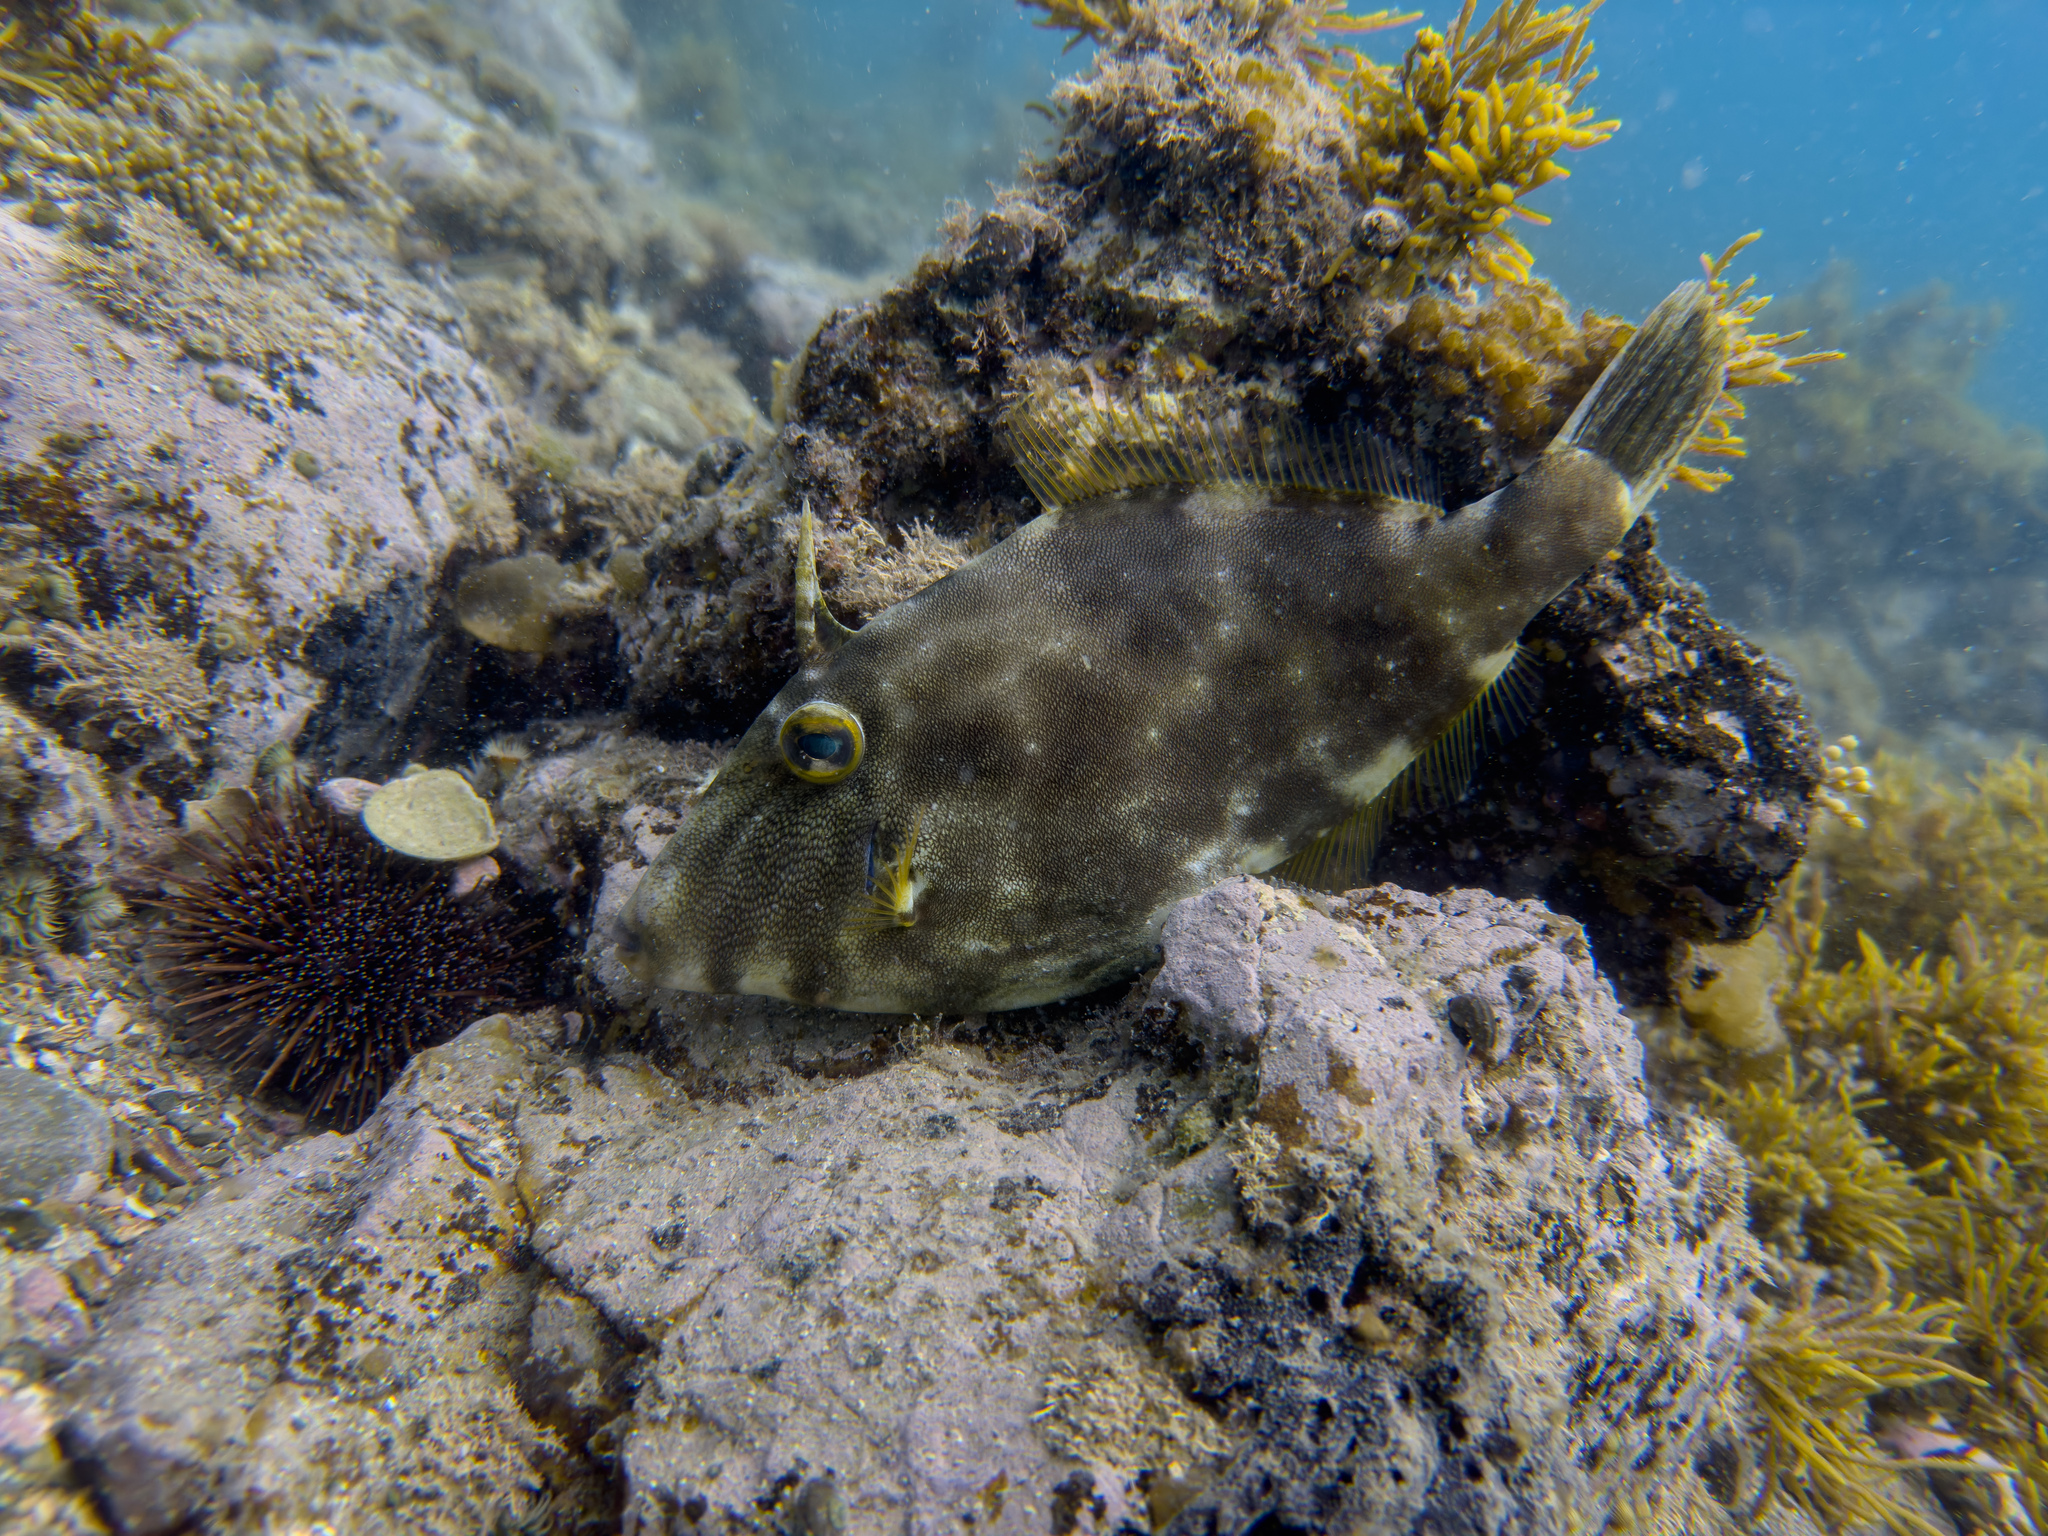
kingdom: Animalia
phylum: Chordata
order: Tetraodontiformes
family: Monacanthidae
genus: Meuschenia
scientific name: Meuschenia scaber
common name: Cosmopolitan leatherjacket
